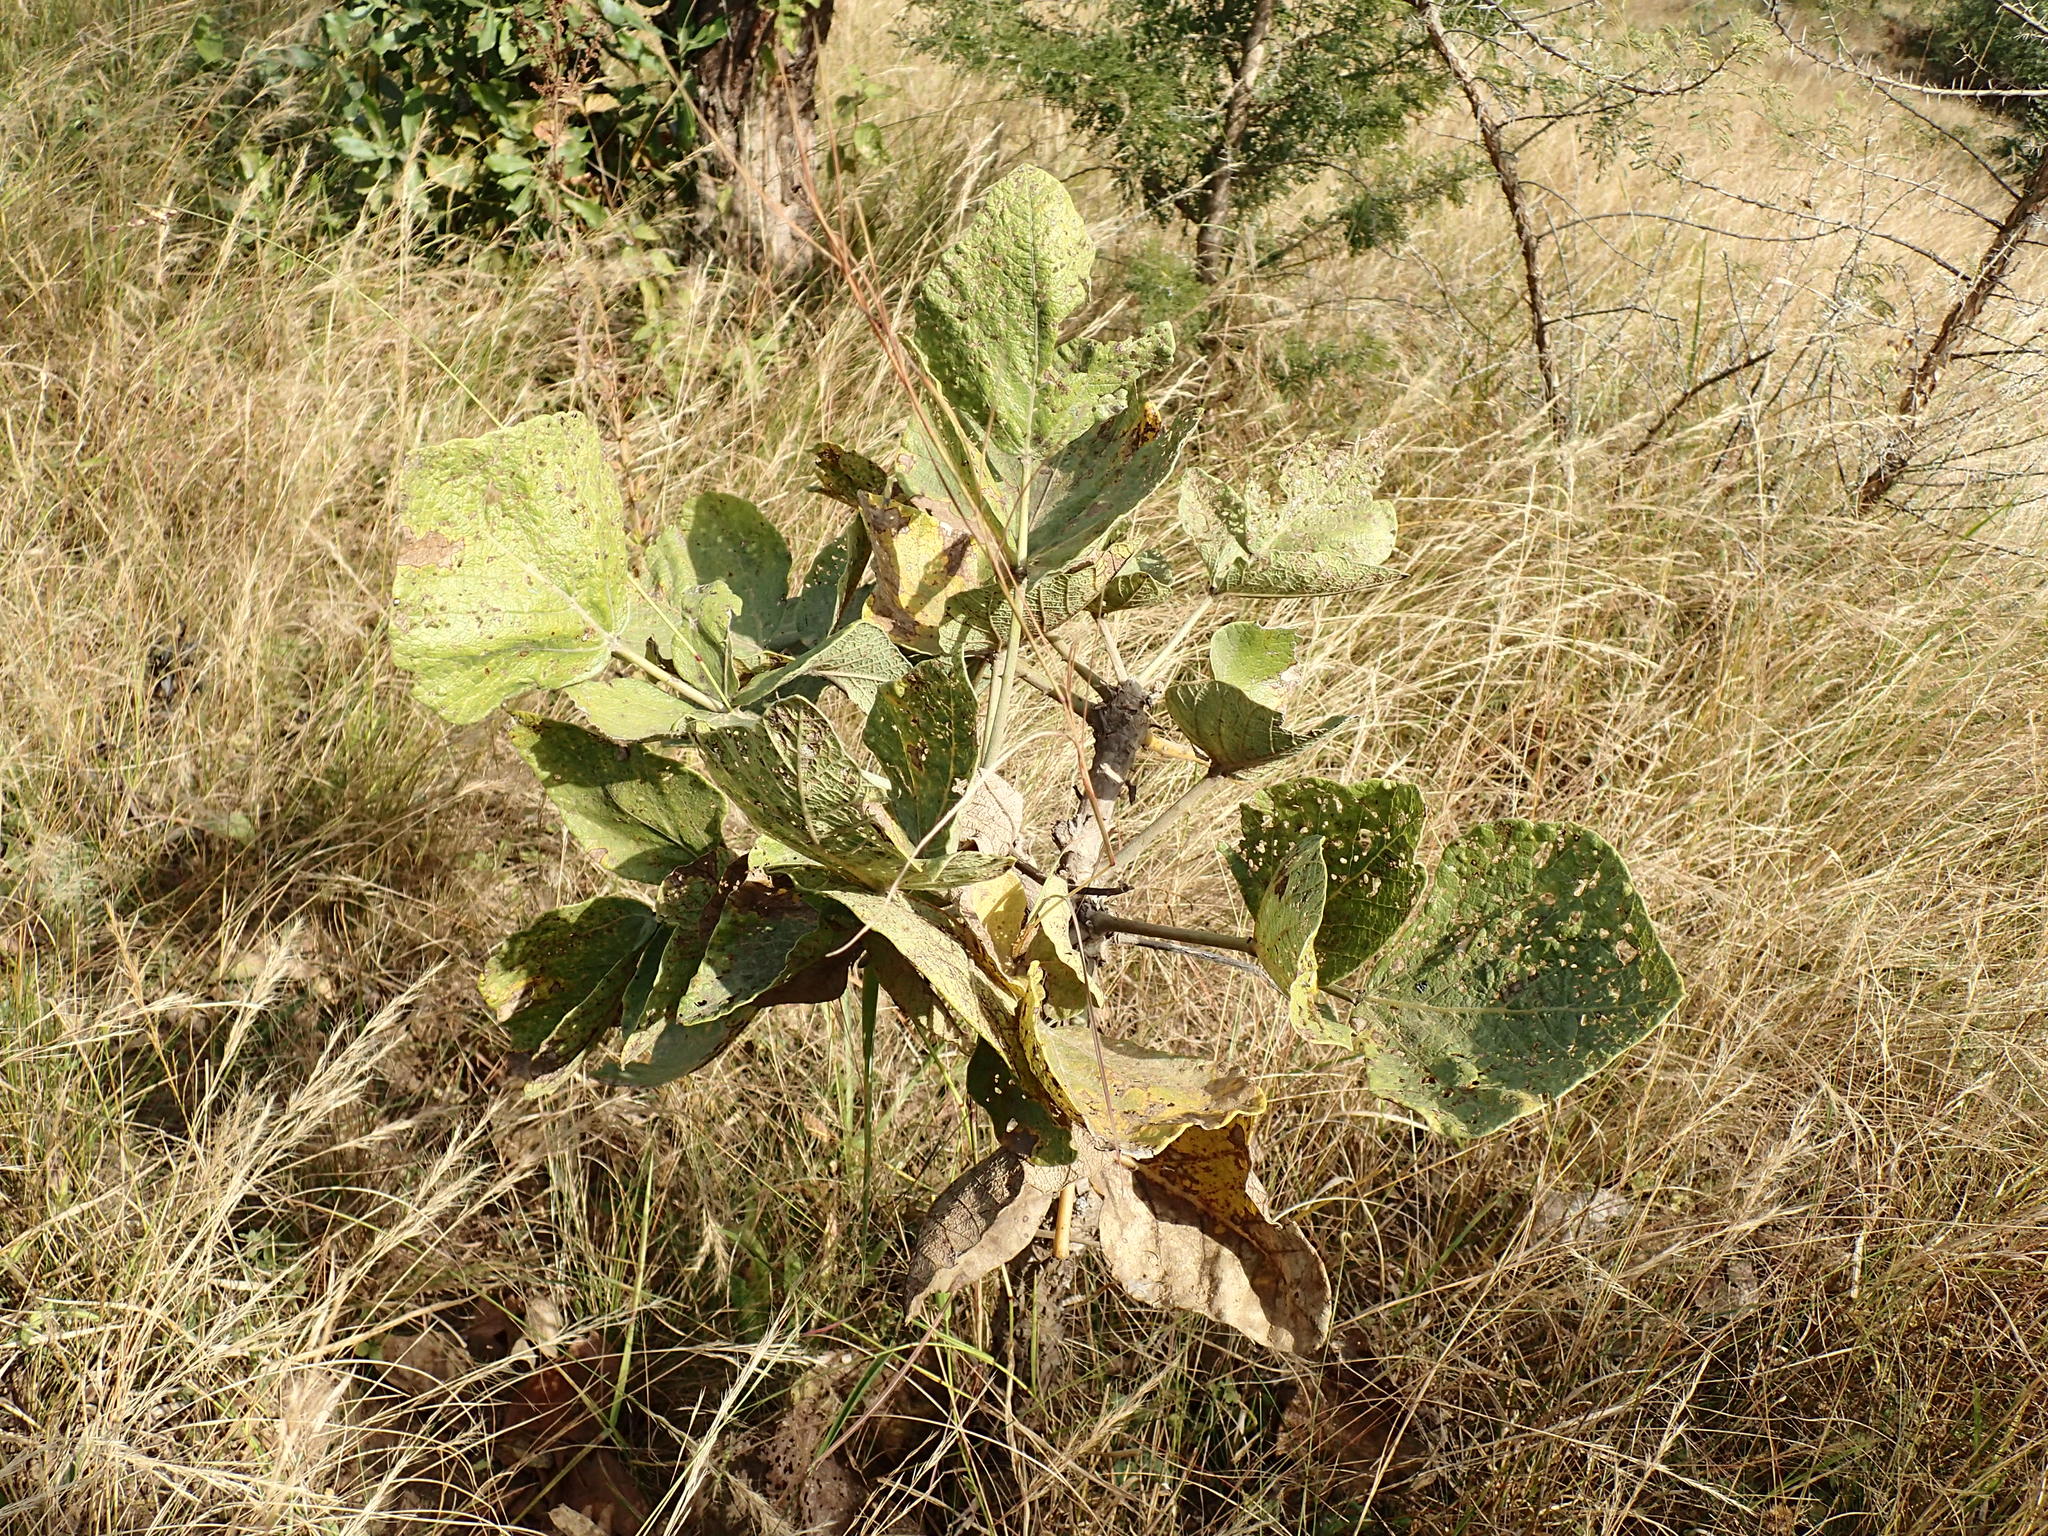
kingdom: Plantae
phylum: Tracheophyta
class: Magnoliopsida
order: Fabales
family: Fabaceae
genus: Erythrina
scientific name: Erythrina latissima
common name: Broad-leaved coral tree
